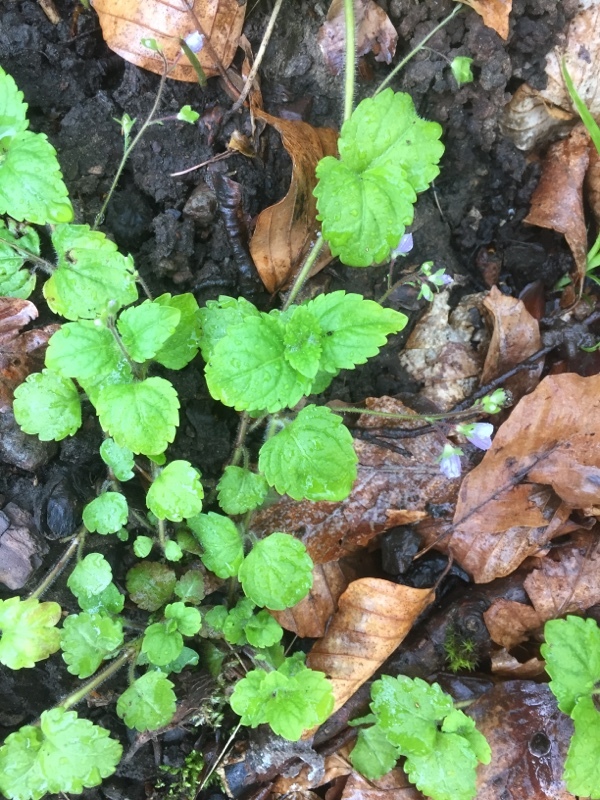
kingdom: Plantae
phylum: Tracheophyta
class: Magnoliopsida
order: Lamiales
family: Plantaginaceae
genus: Veronica
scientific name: Veronica montana
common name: Wood speedwell
